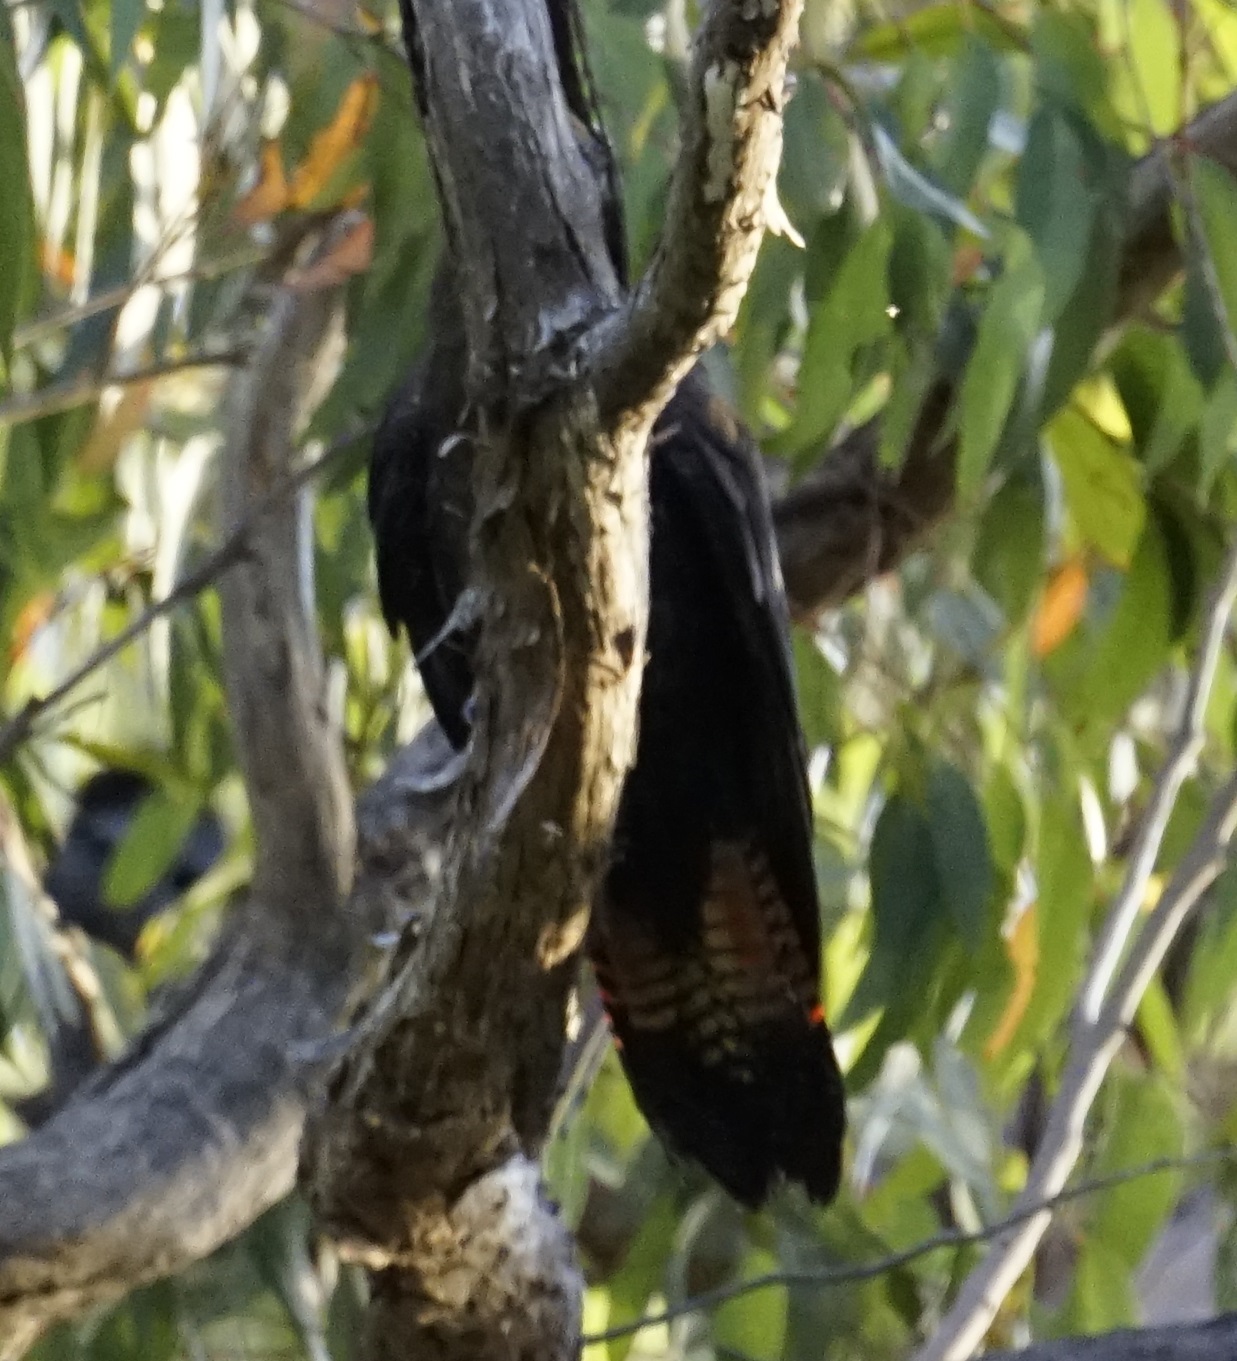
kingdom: Animalia
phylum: Chordata
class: Aves
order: Psittaciformes
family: Psittacidae
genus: Calyptorhynchus
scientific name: Calyptorhynchus lathami
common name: Glossy black cockatoo
